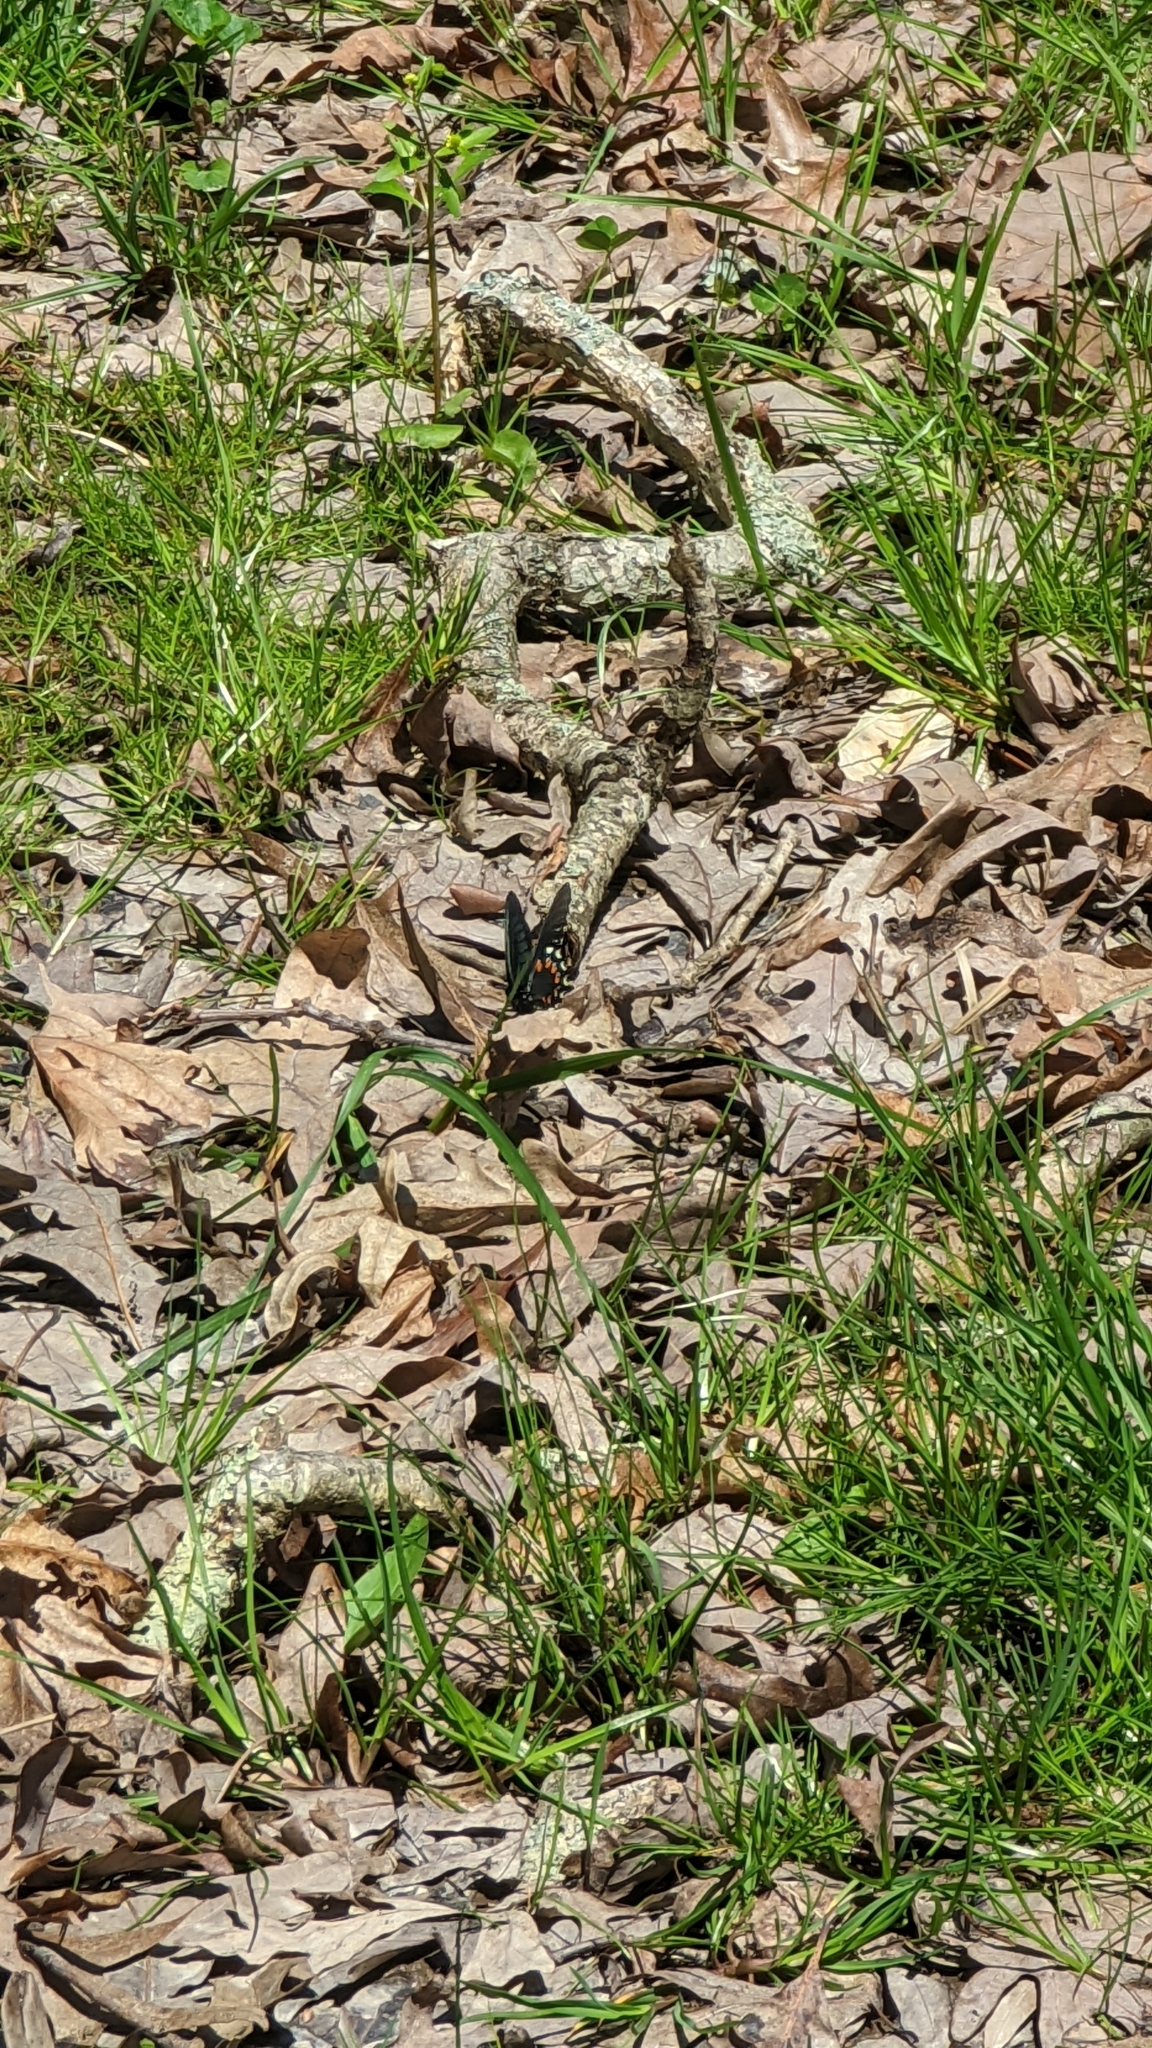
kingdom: Animalia
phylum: Arthropoda
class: Insecta
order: Lepidoptera
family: Papilionidae
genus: Battus
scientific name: Battus philenor
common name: Pipevine swallowtail
